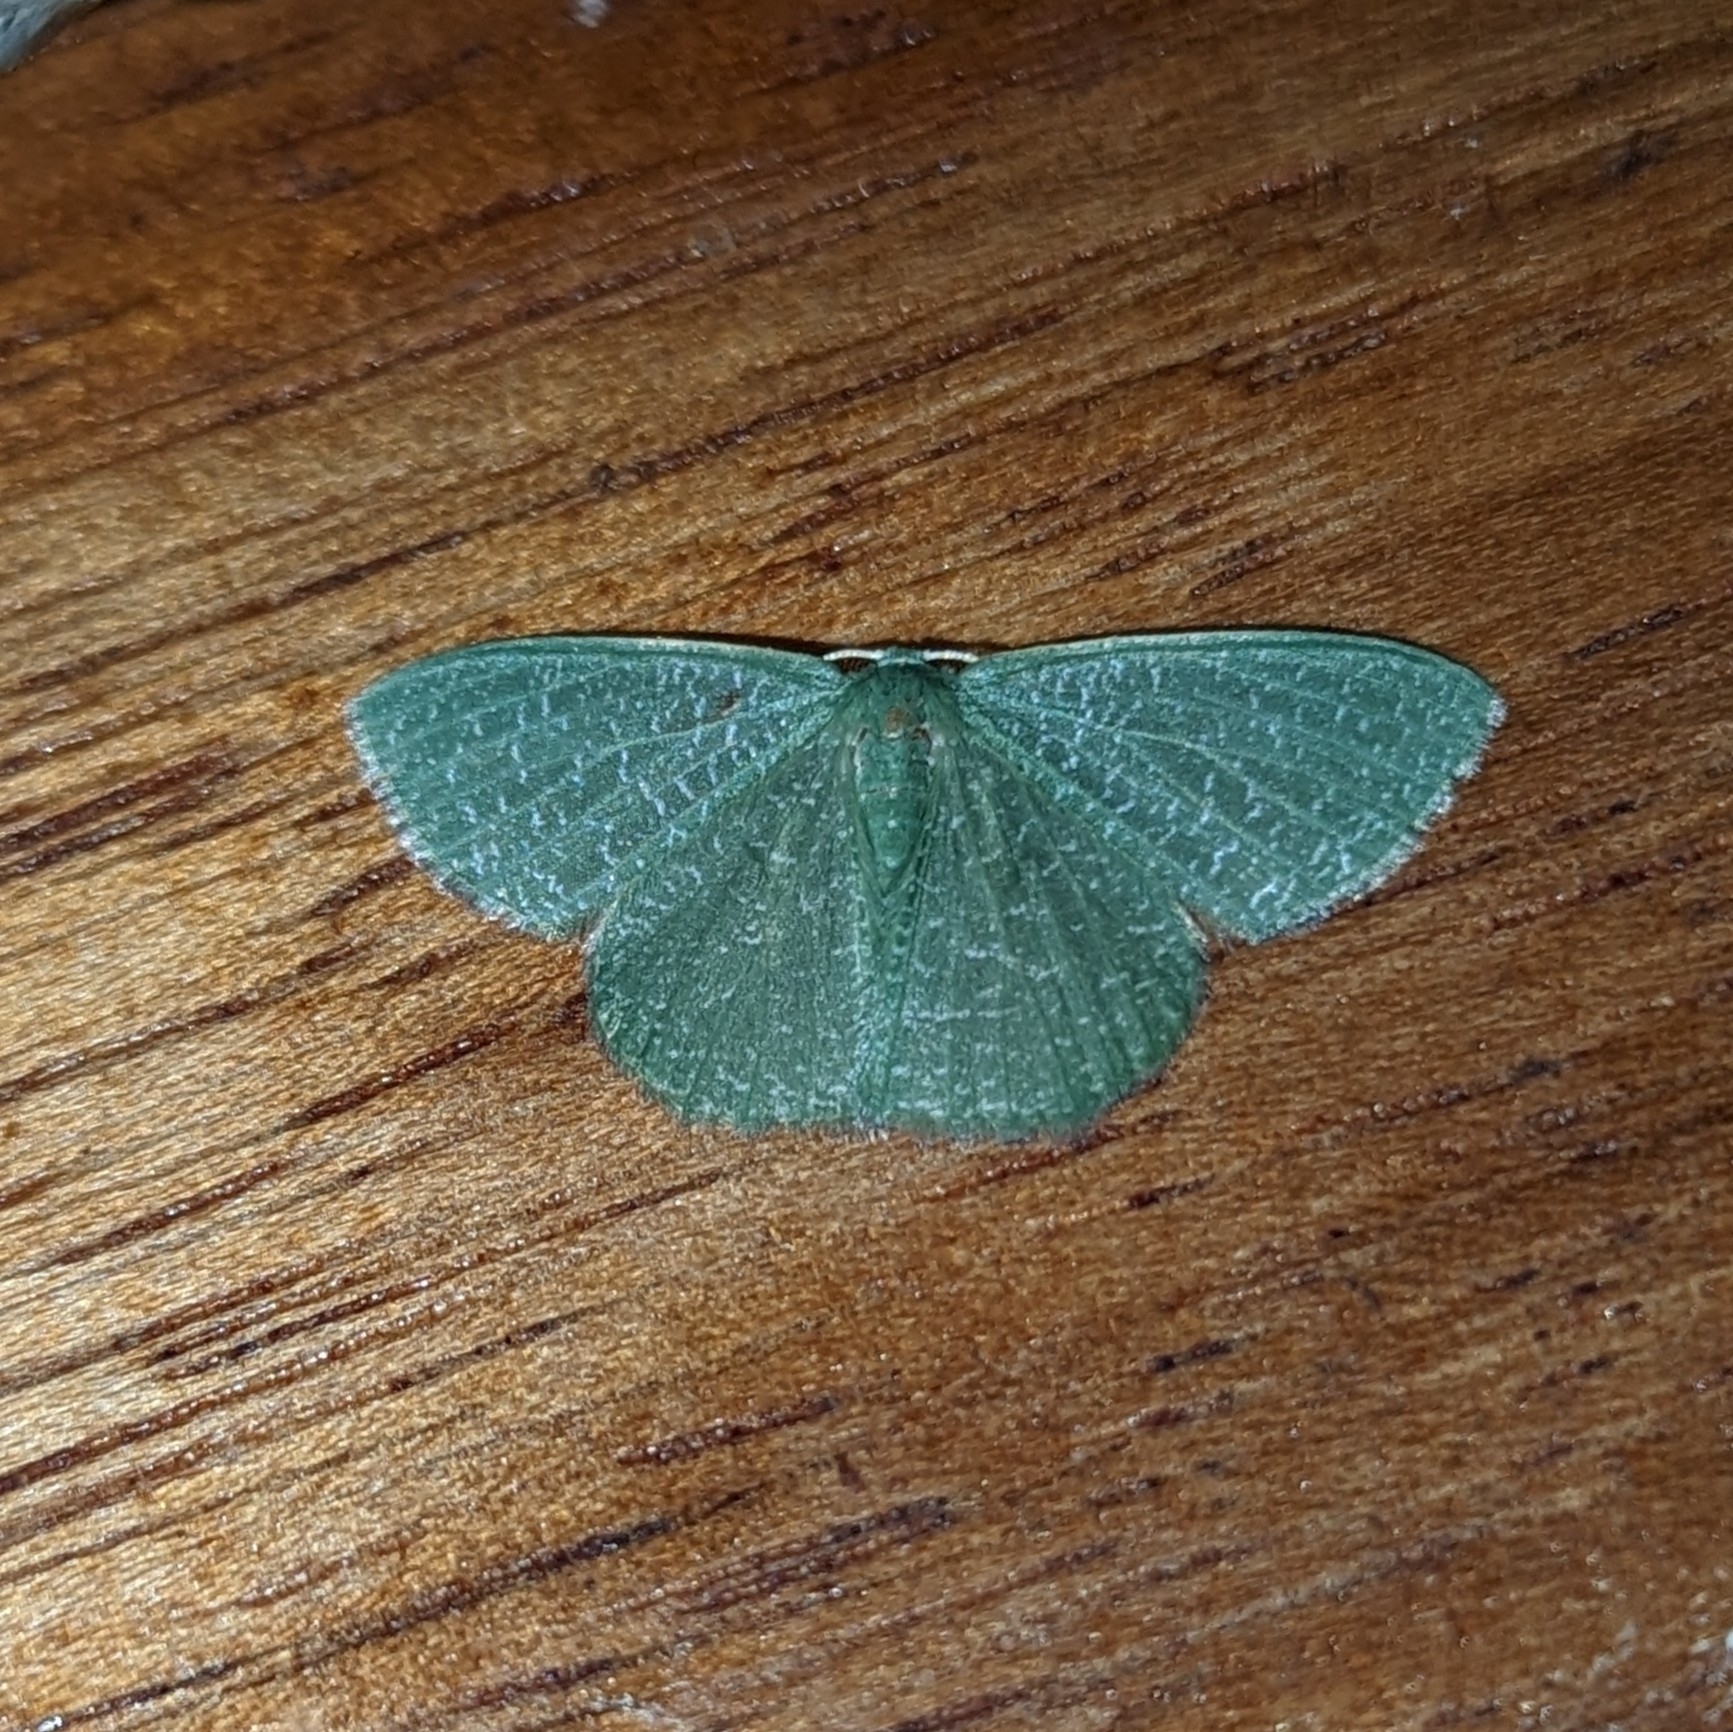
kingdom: Animalia
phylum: Arthropoda
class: Insecta
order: Lepidoptera
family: Geometridae
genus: Prasinocyma
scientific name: Prasinocyma pedicata
